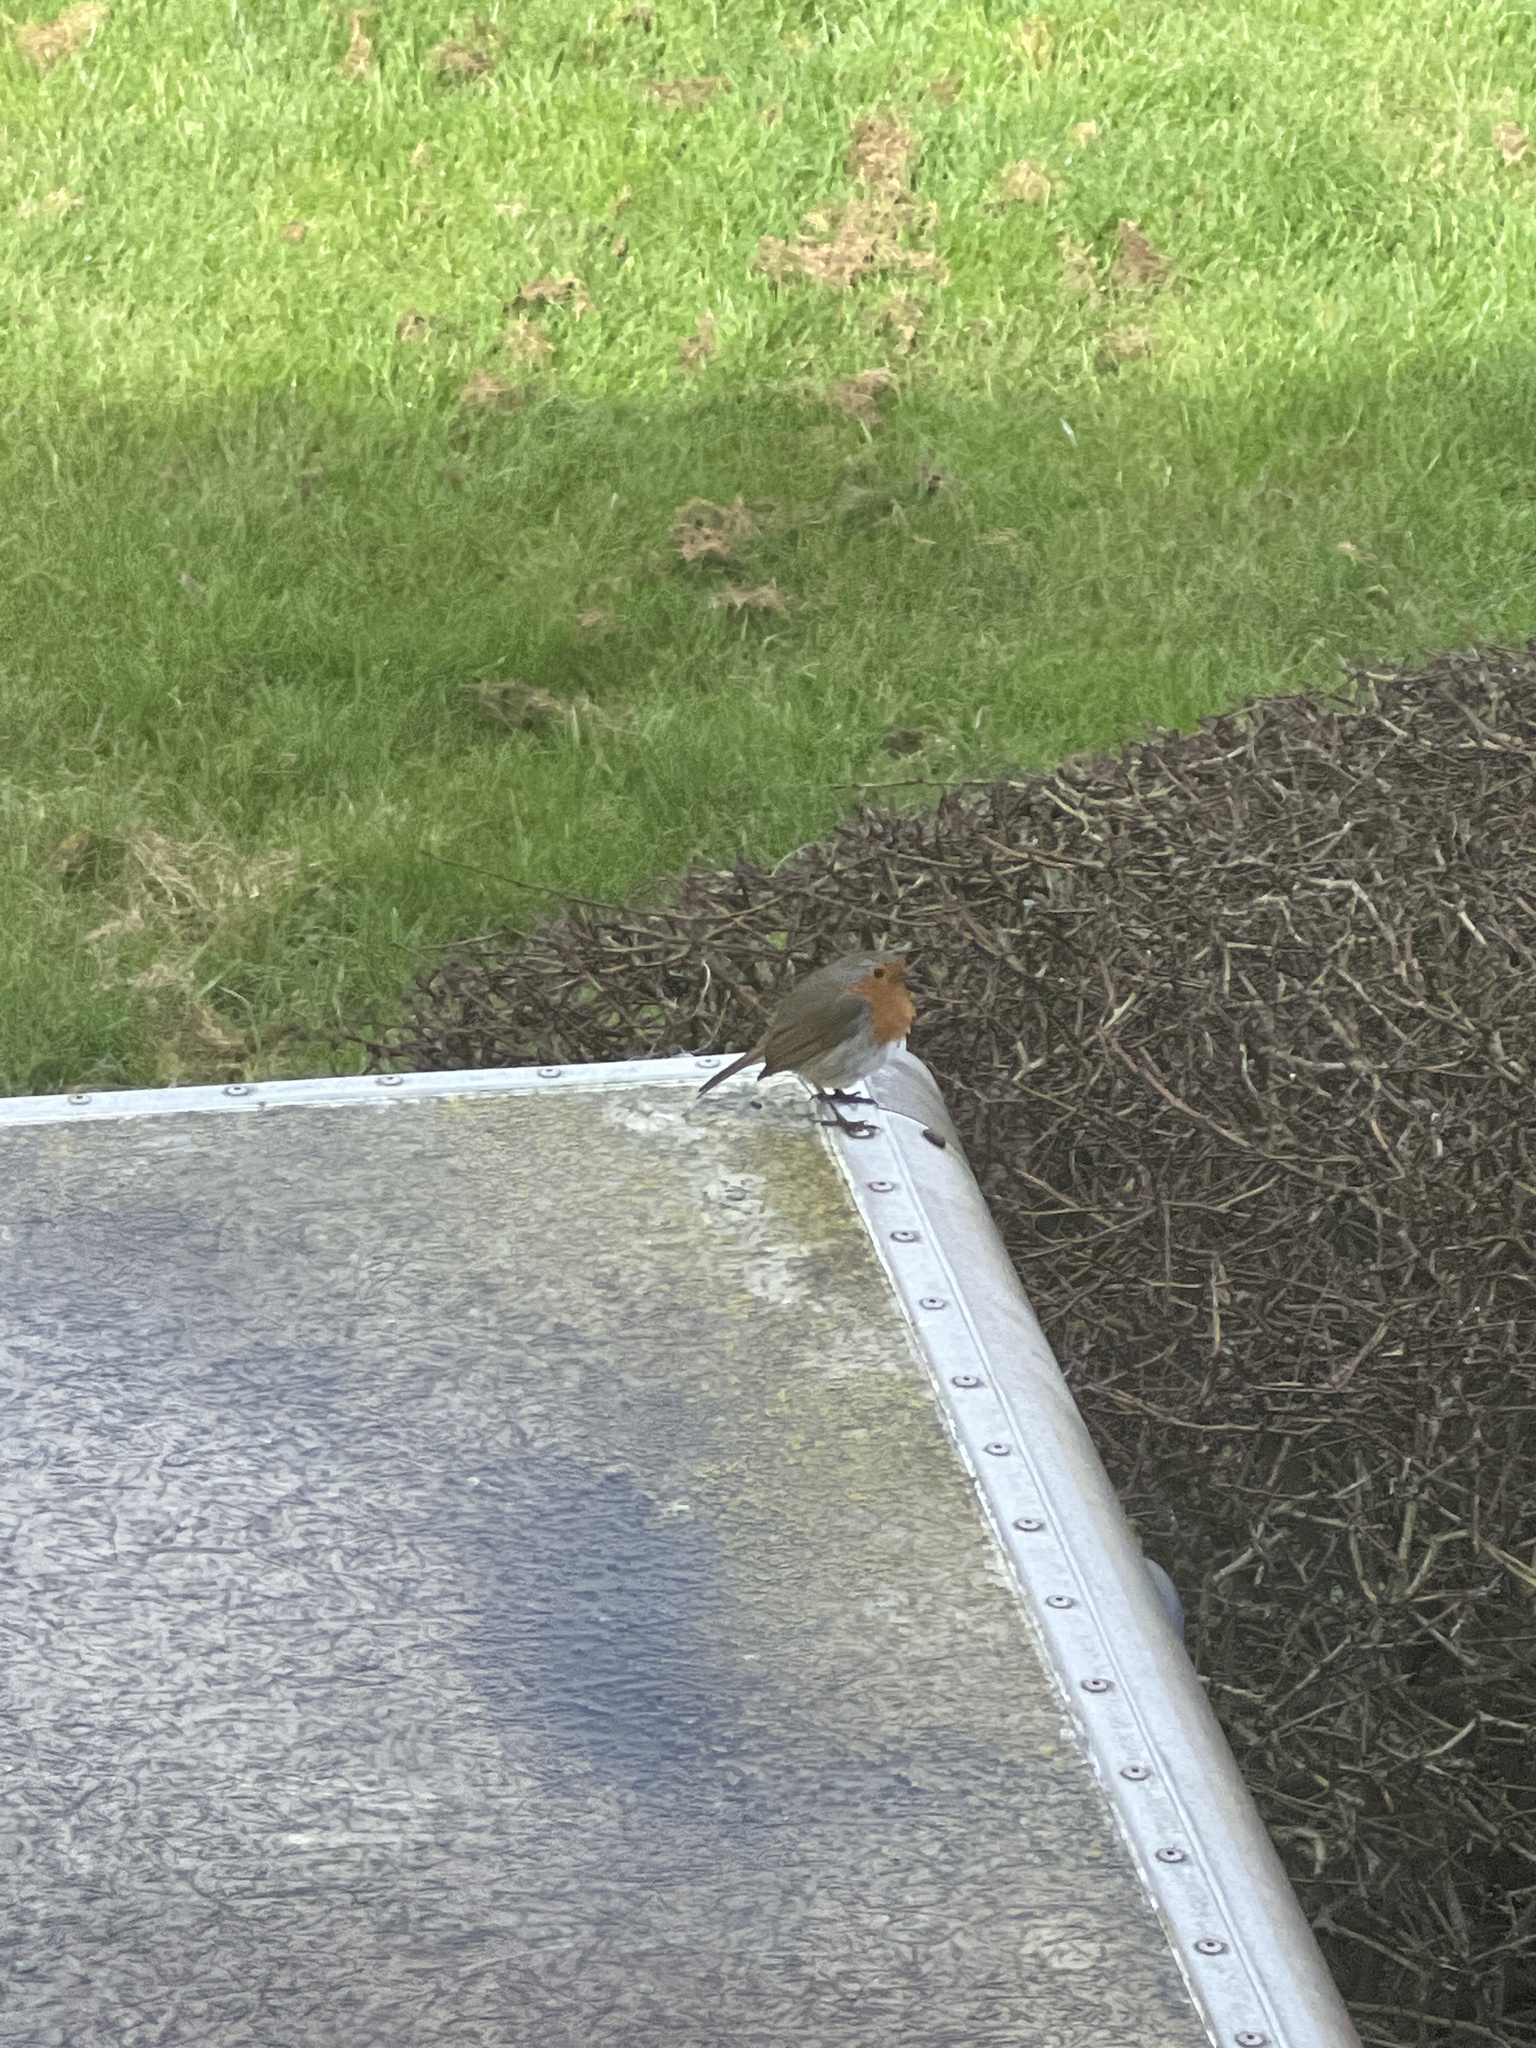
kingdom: Animalia
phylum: Chordata
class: Aves
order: Passeriformes
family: Muscicapidae
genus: Erithacus
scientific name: Erithacus rubecula
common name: European robin
